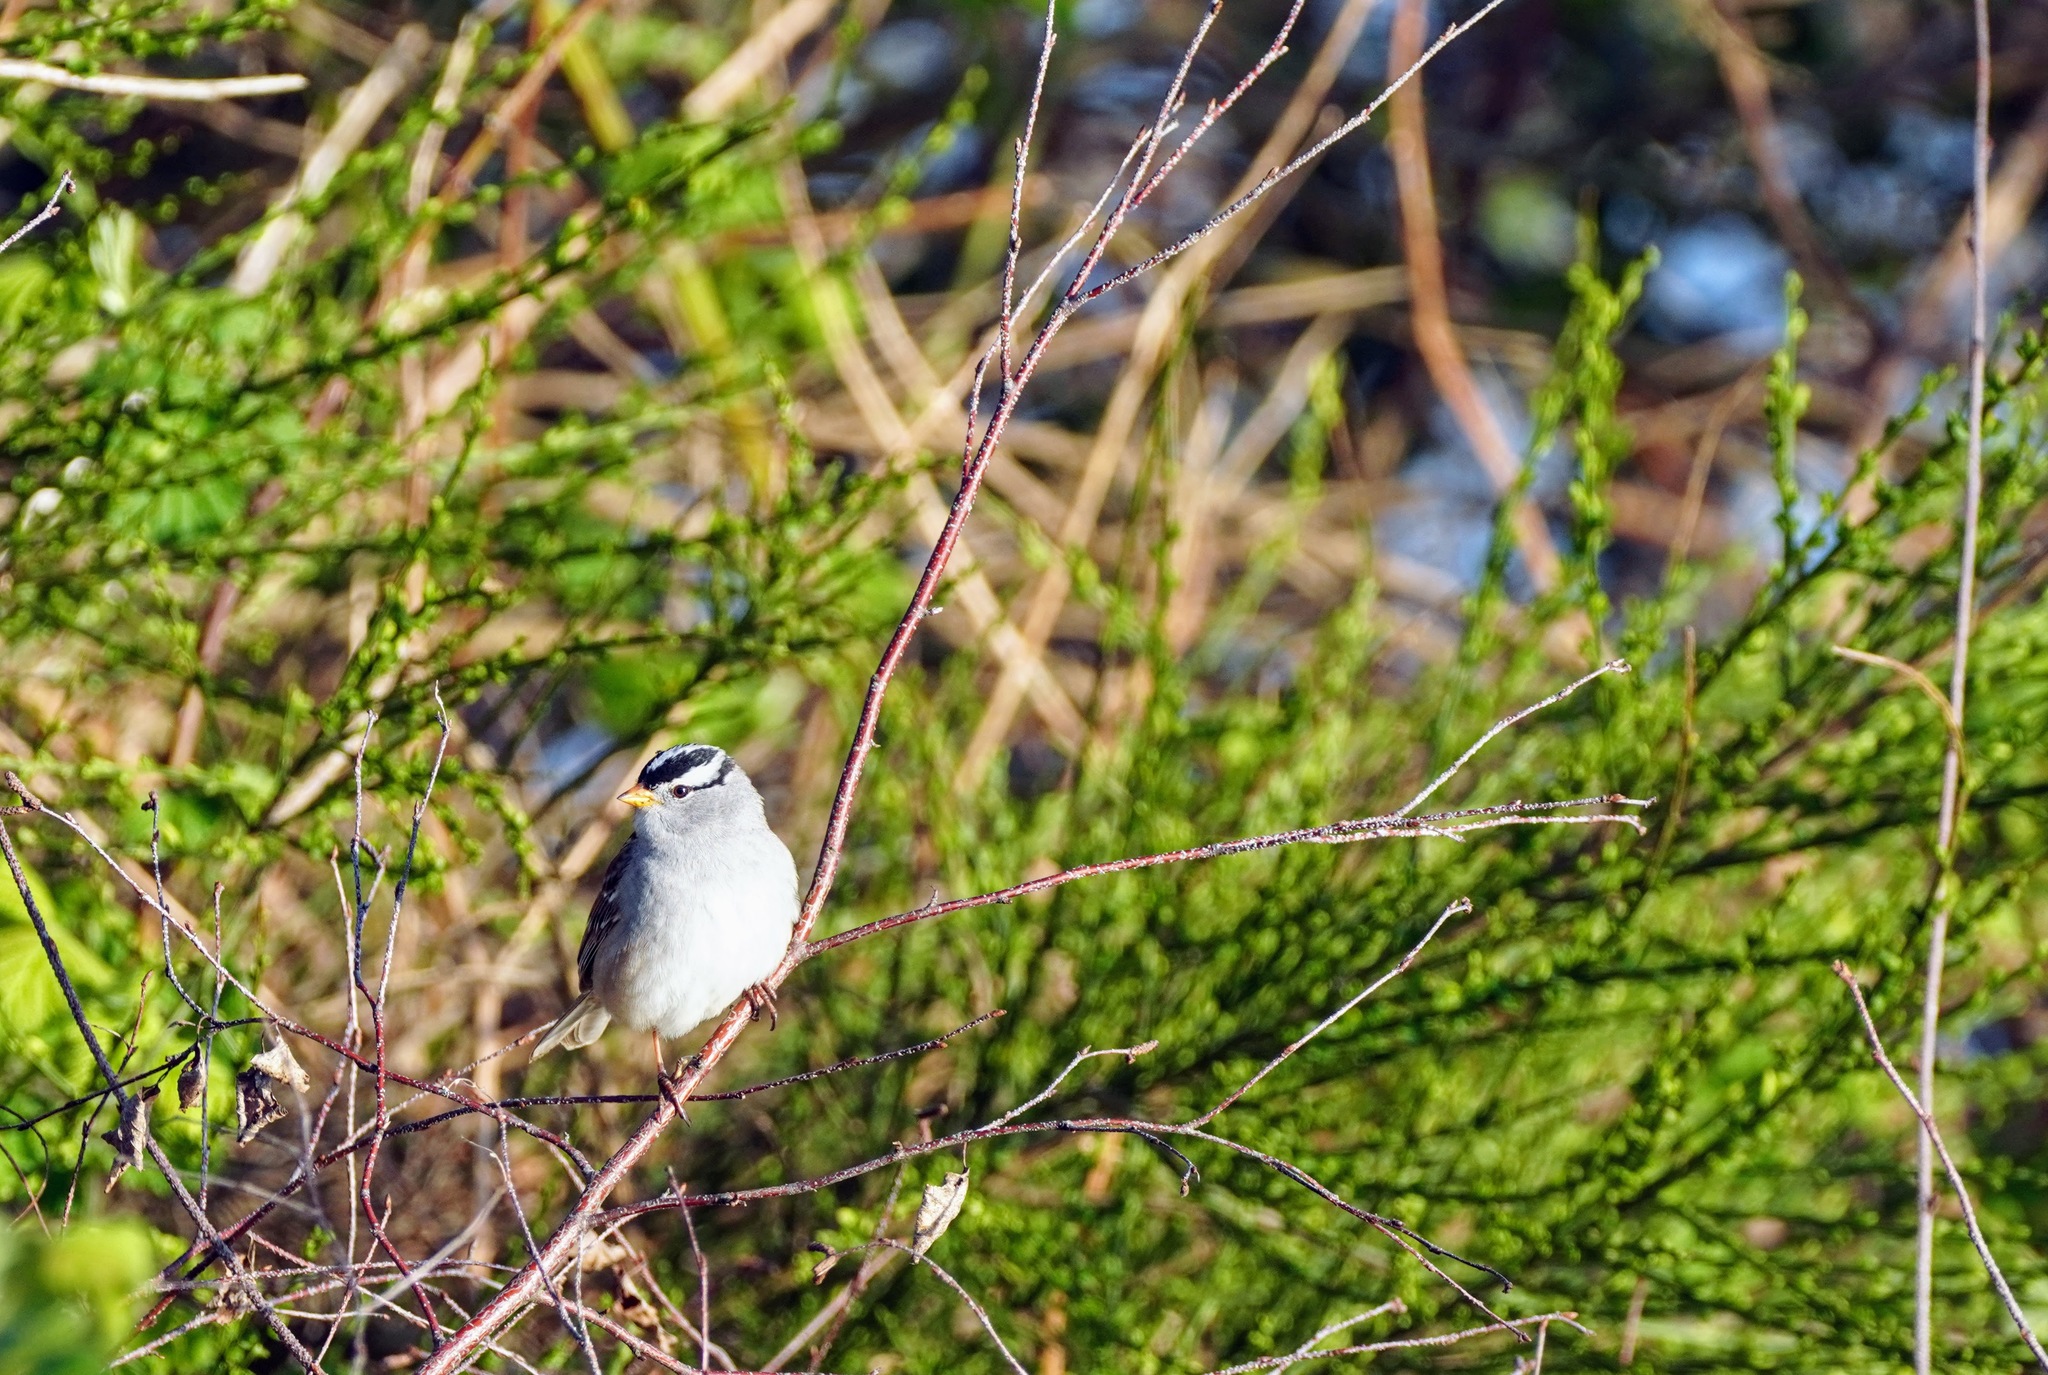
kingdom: Animalia
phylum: Chordata
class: Aves
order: Passeriformes
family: Passerellidae
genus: Zonotrichia
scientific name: Zonotrichia leucophrys
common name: White-crowned sparrow
